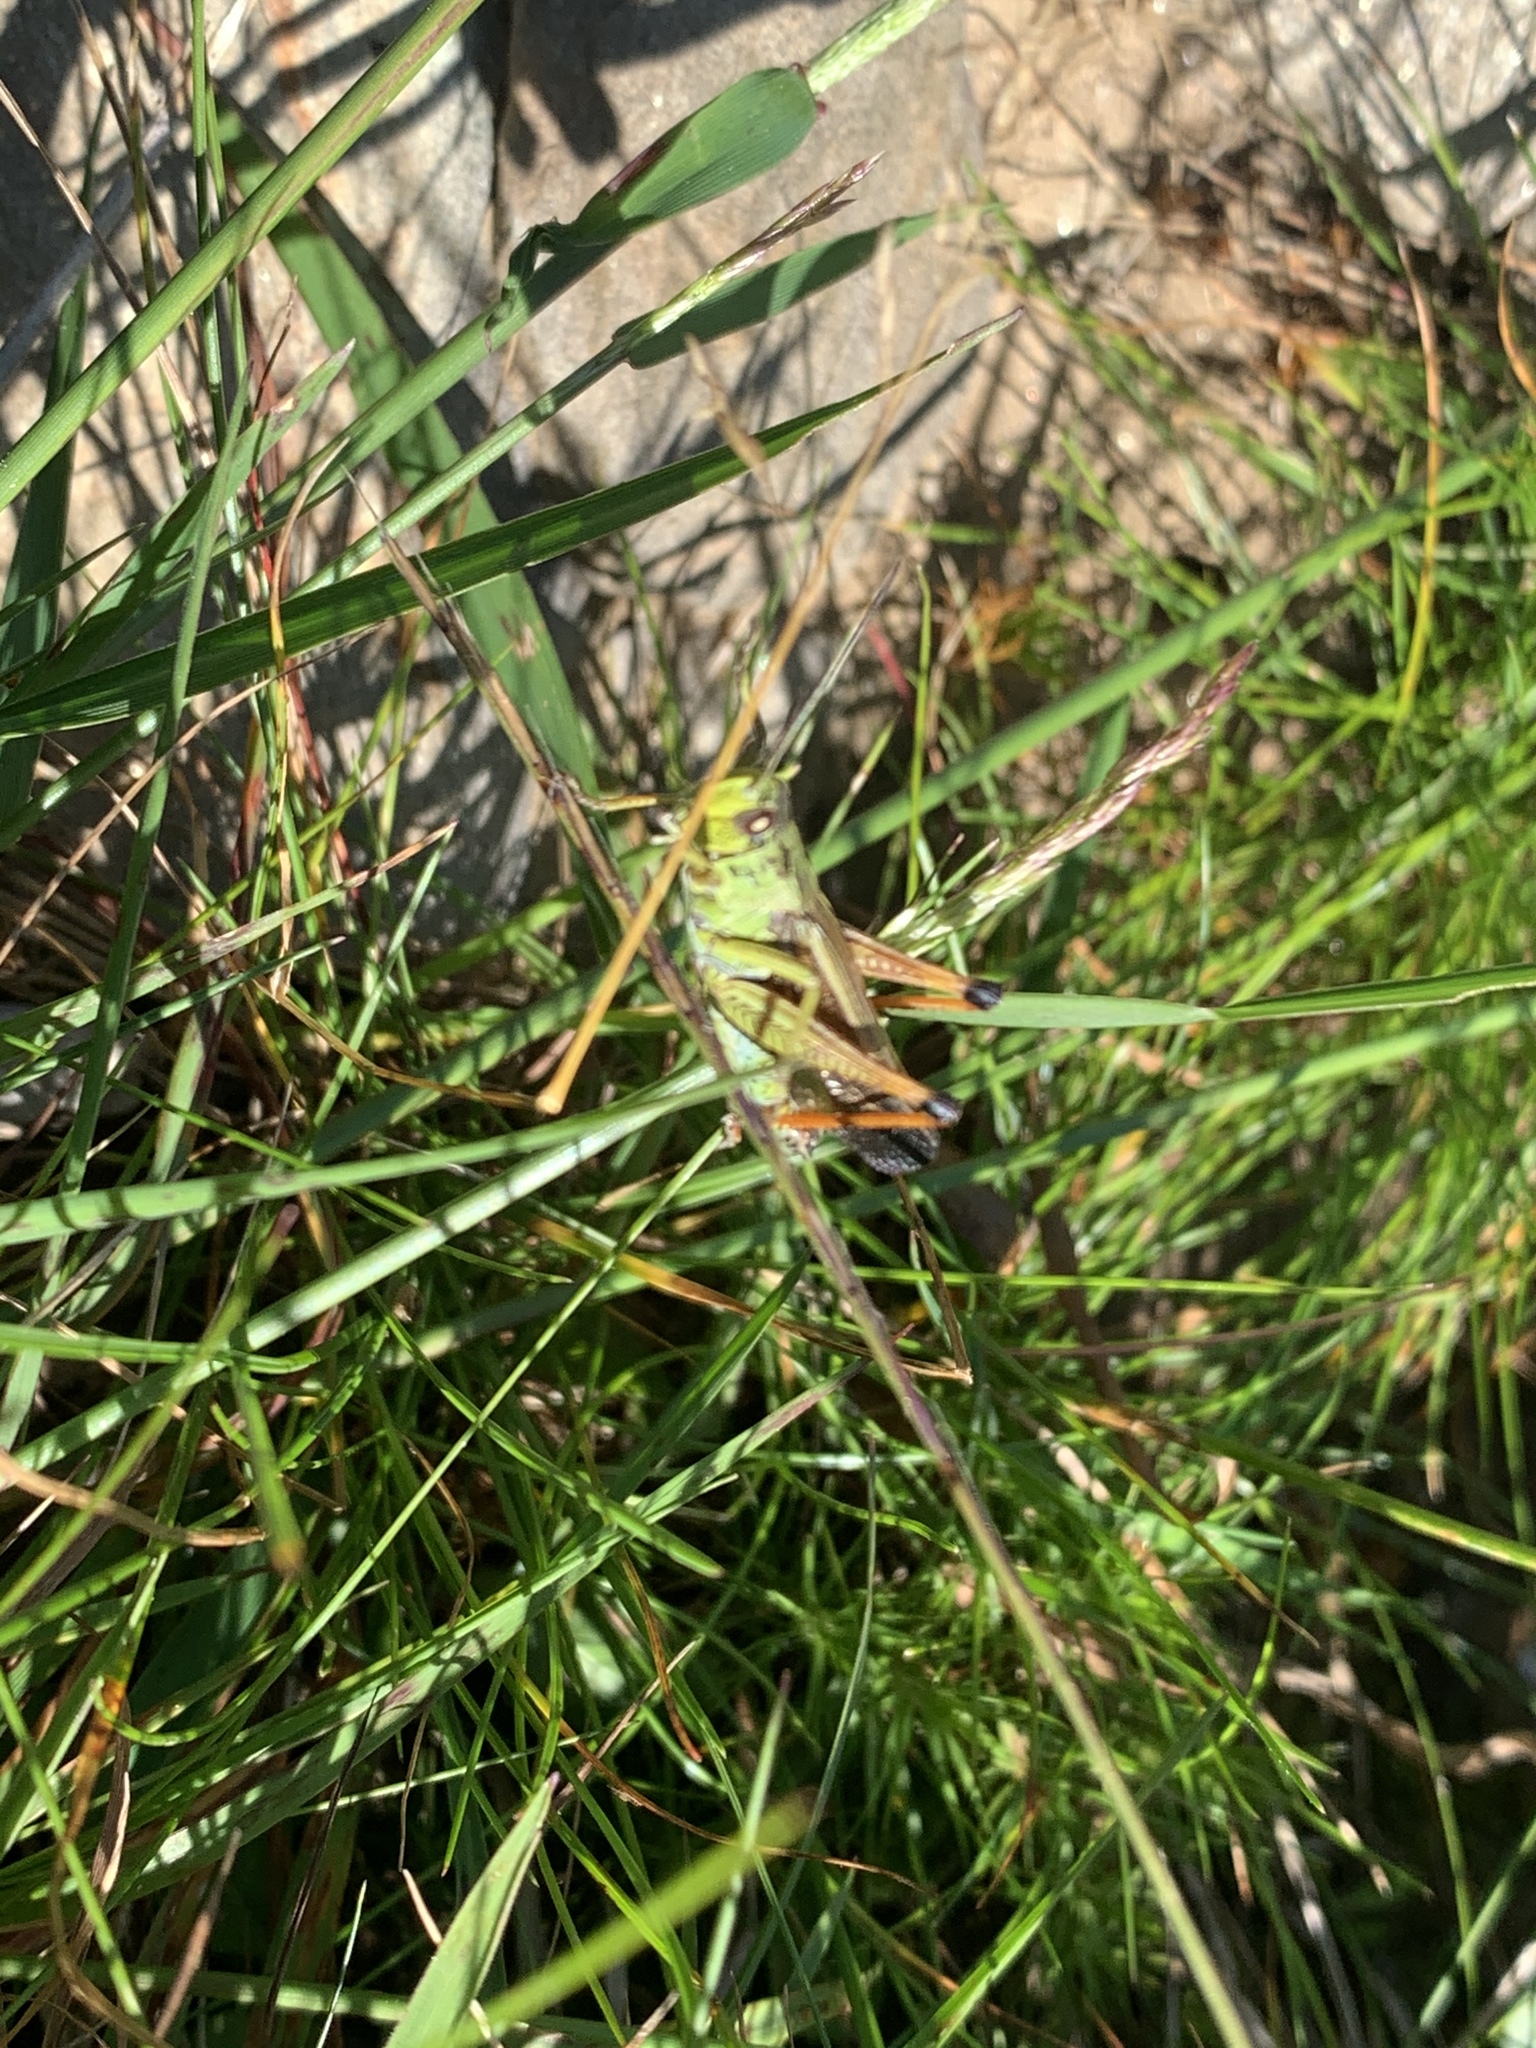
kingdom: Animalia
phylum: Arthropoda
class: Insecta
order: Orthoptera
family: Acrididae
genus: Stauroderus
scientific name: Stauroderus scalaris
